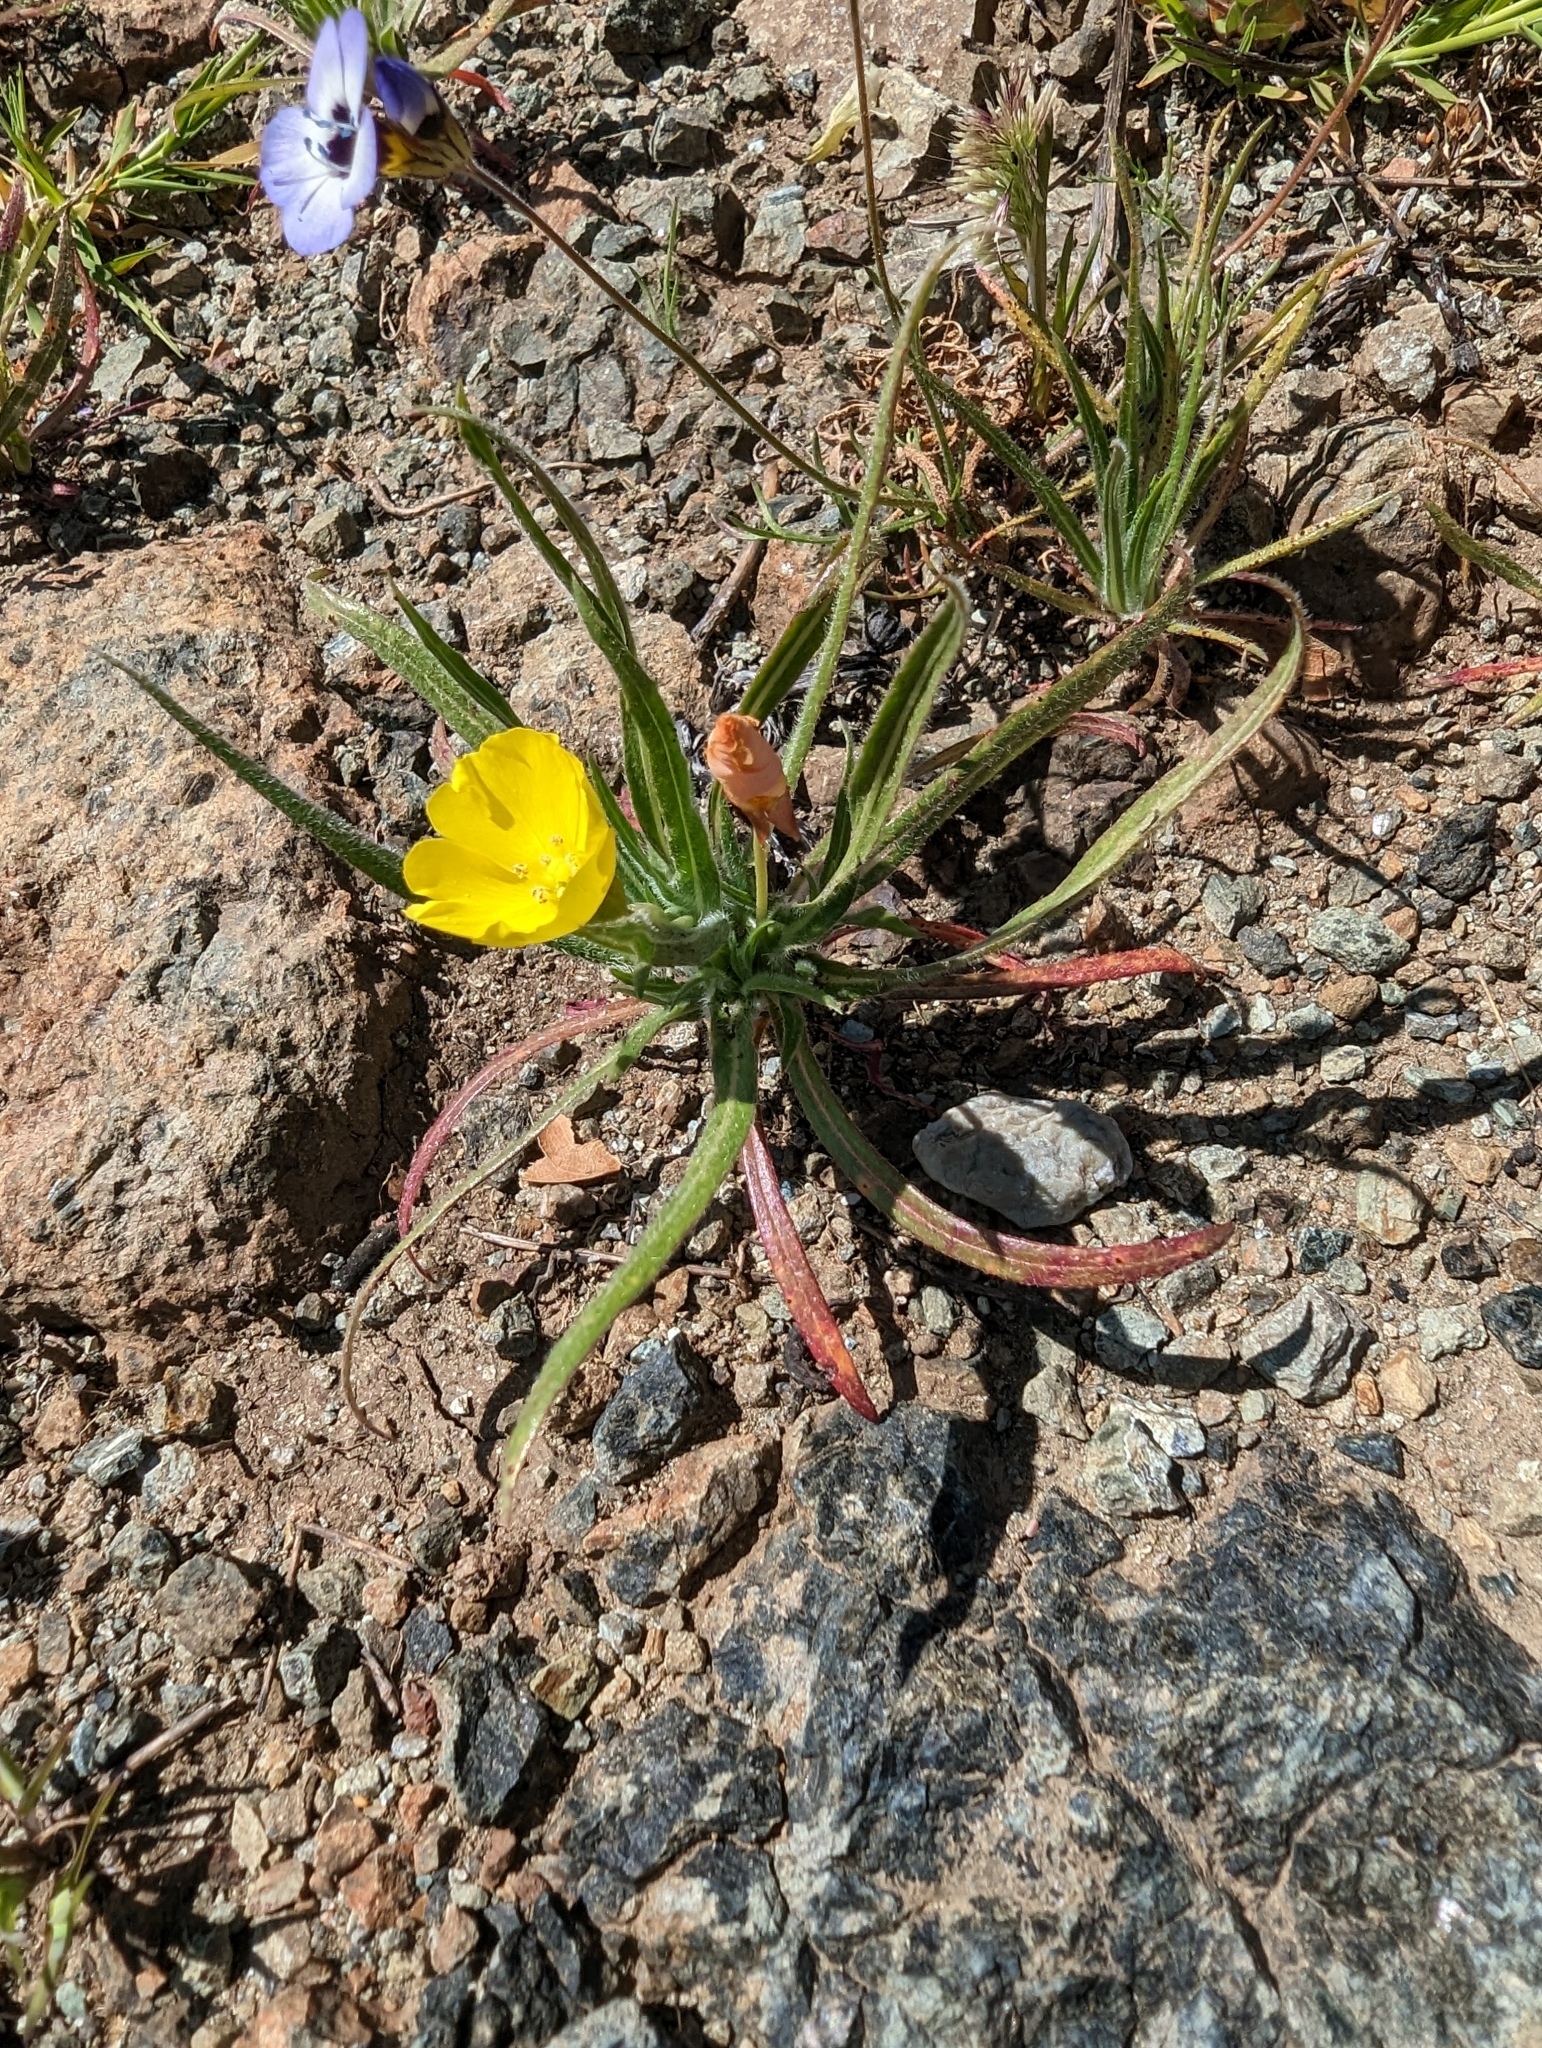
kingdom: Plantae
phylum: Tracheophyta
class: Magnoliopsida
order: Myrtales
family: Onagraceae
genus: Tetrapteron
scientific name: Tetrapteron graciliflorum
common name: Hill suncup
